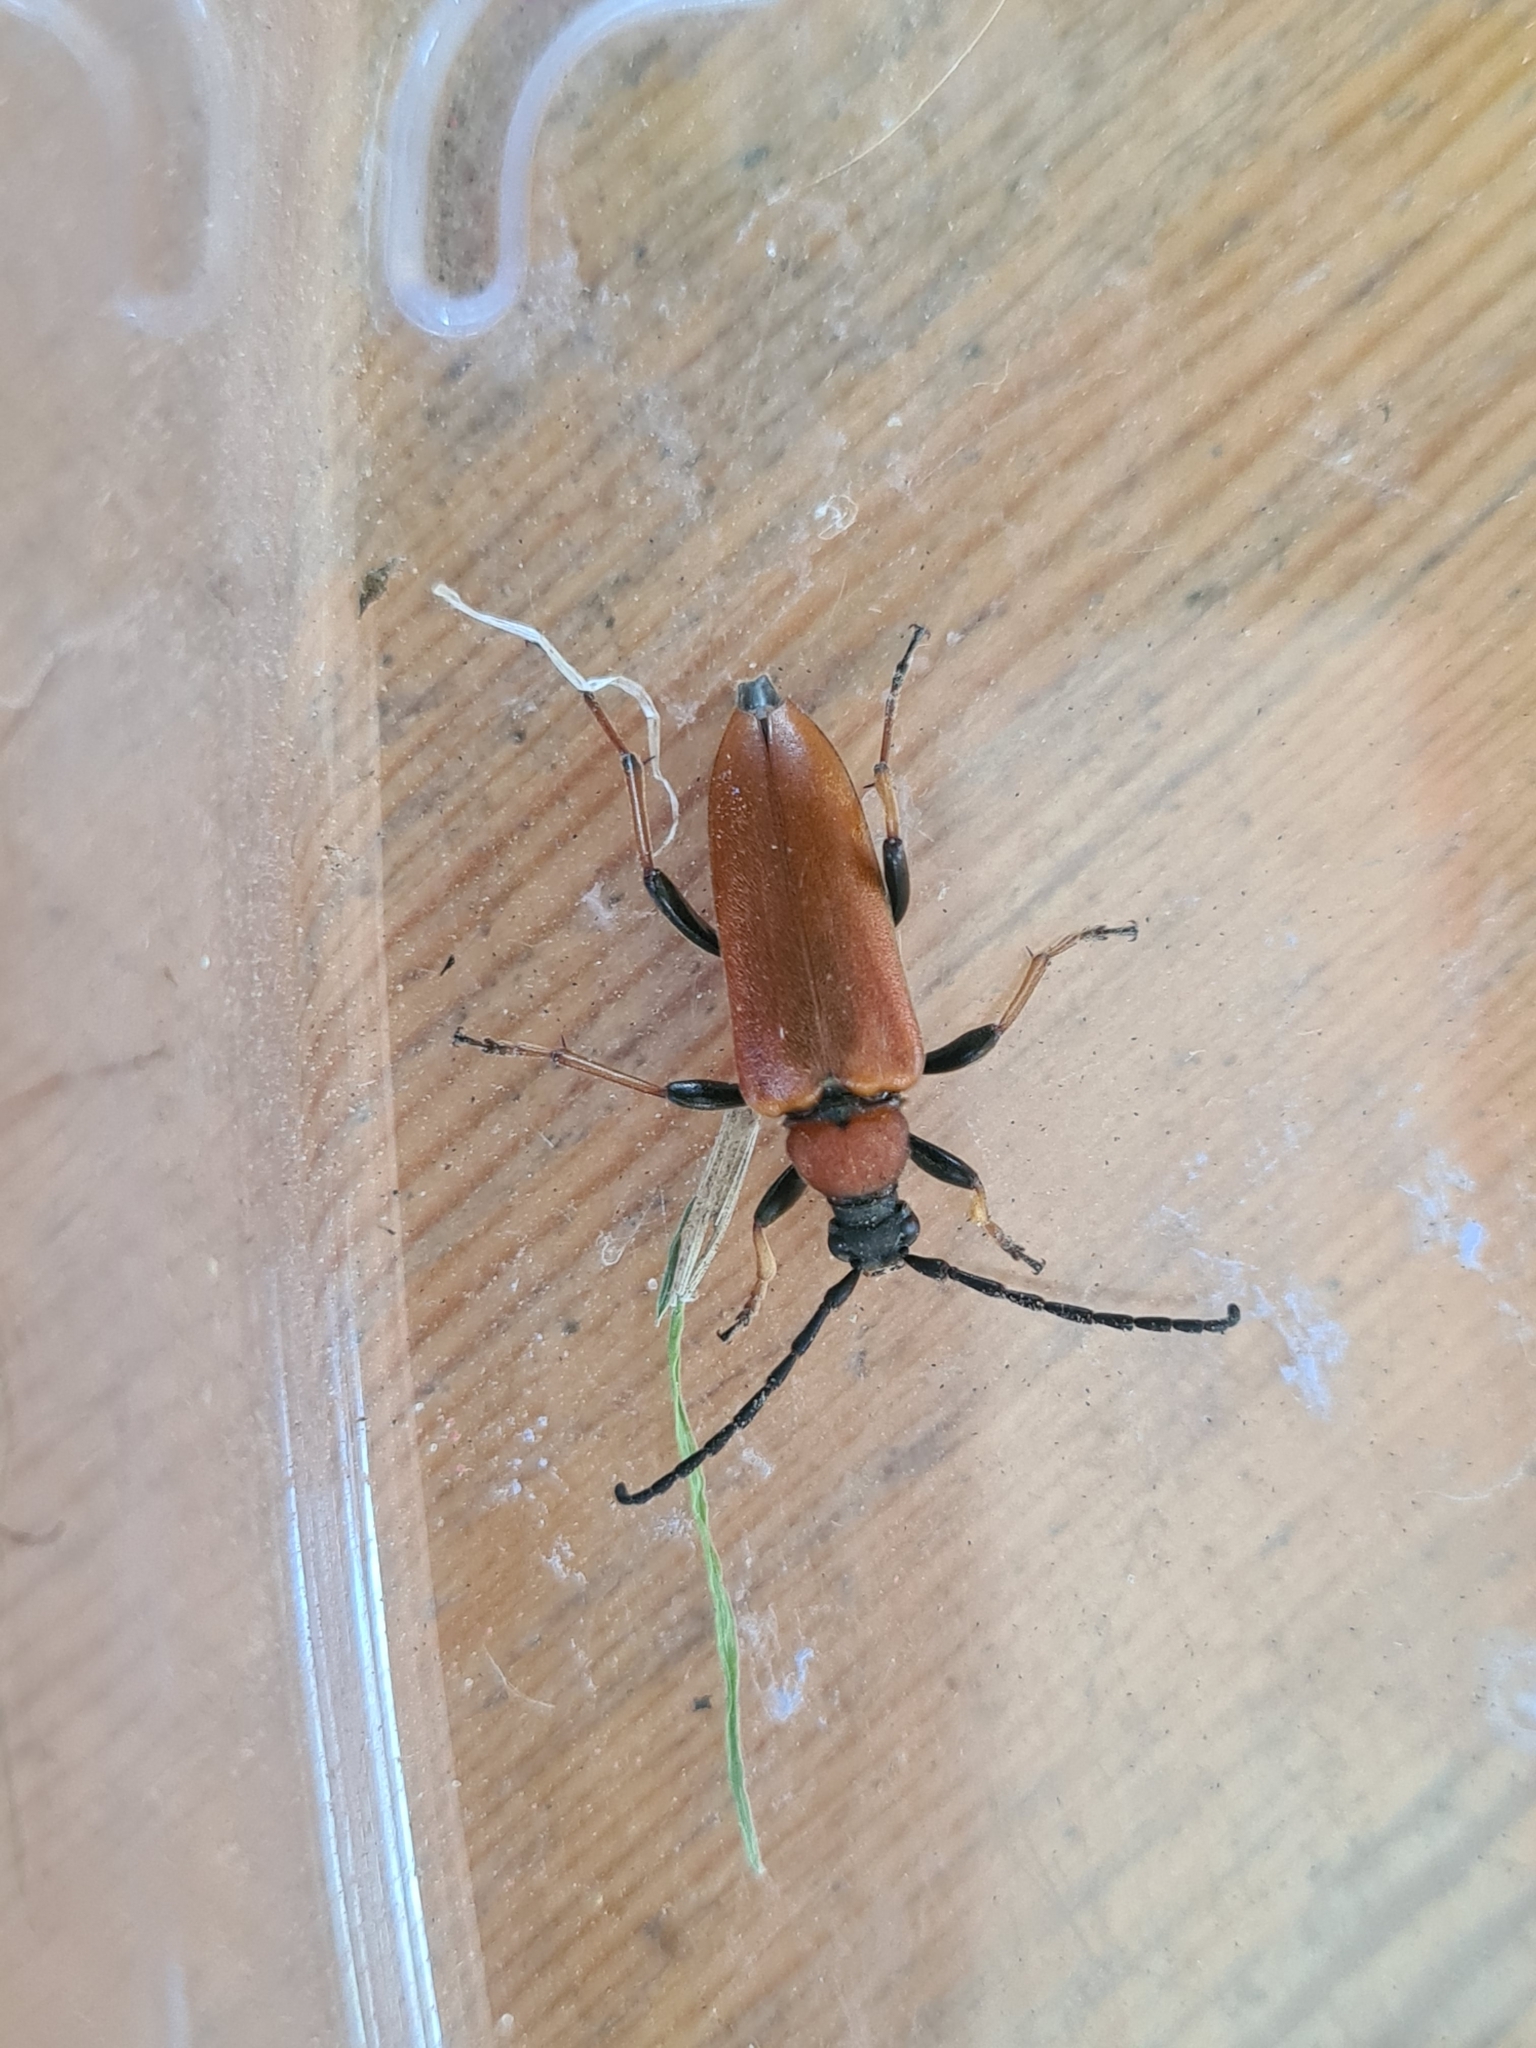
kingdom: Animalia
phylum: Arthropoda
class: Insecta
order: Coleoptera
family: Cerambycidae
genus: Stictoleptura
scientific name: Stictoleptura rubra
